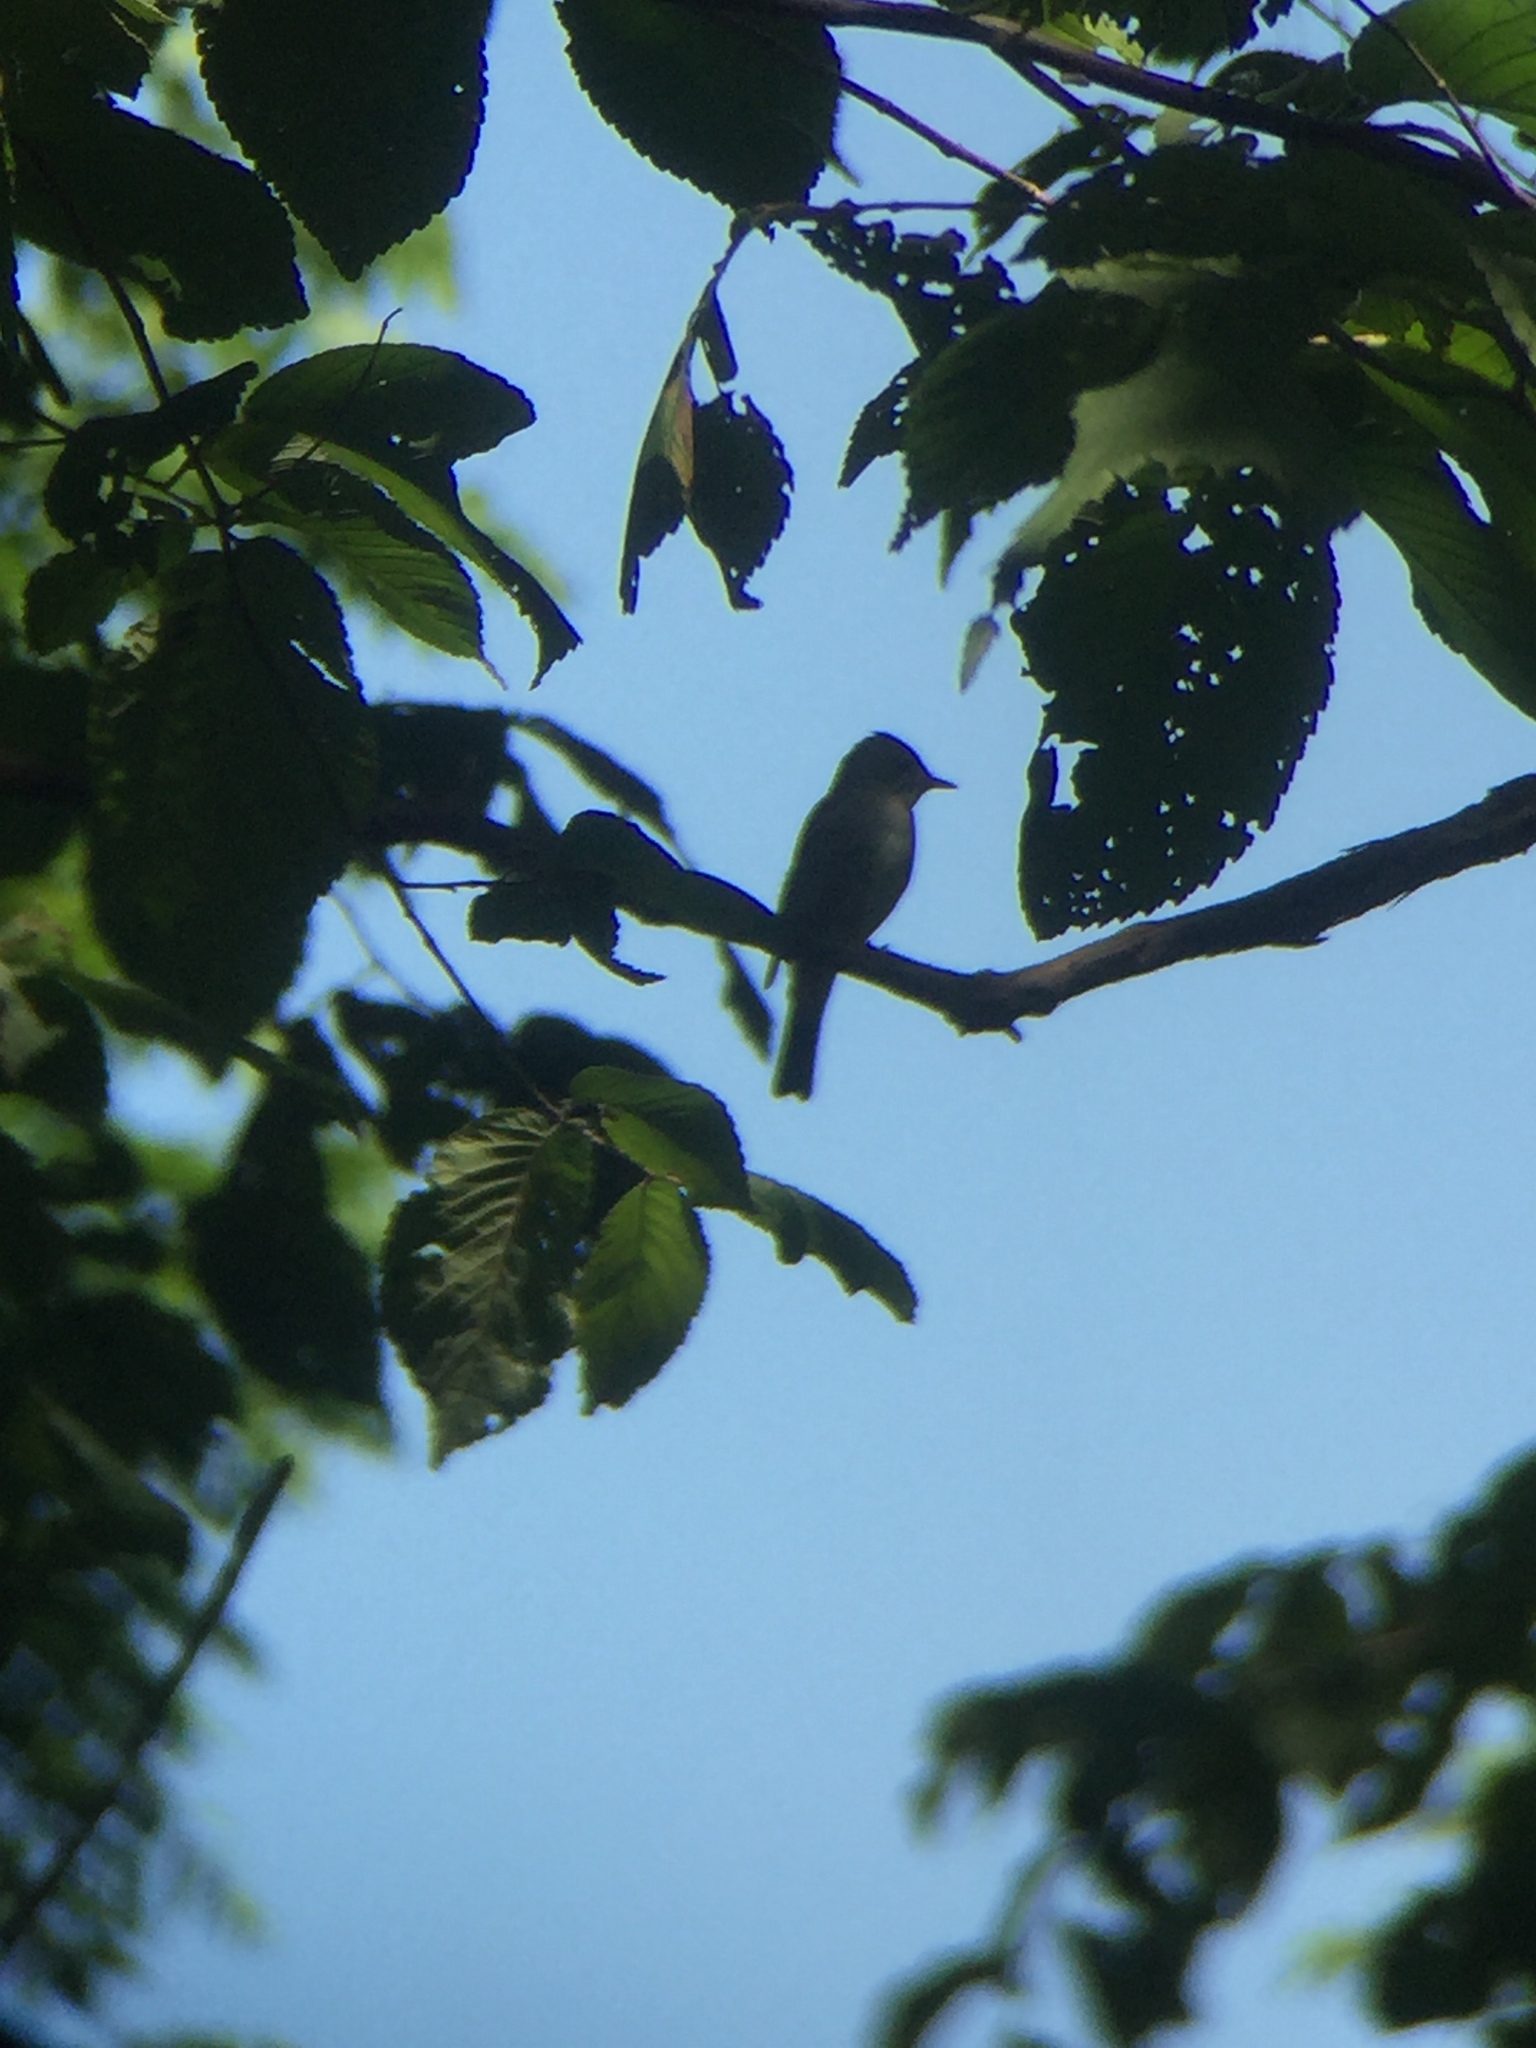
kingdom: Animalia
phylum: Chordata
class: Aves
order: Passeriformes
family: Tyrannidae
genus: Contopus
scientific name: Contopus virens
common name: Eastern wood-pewee
